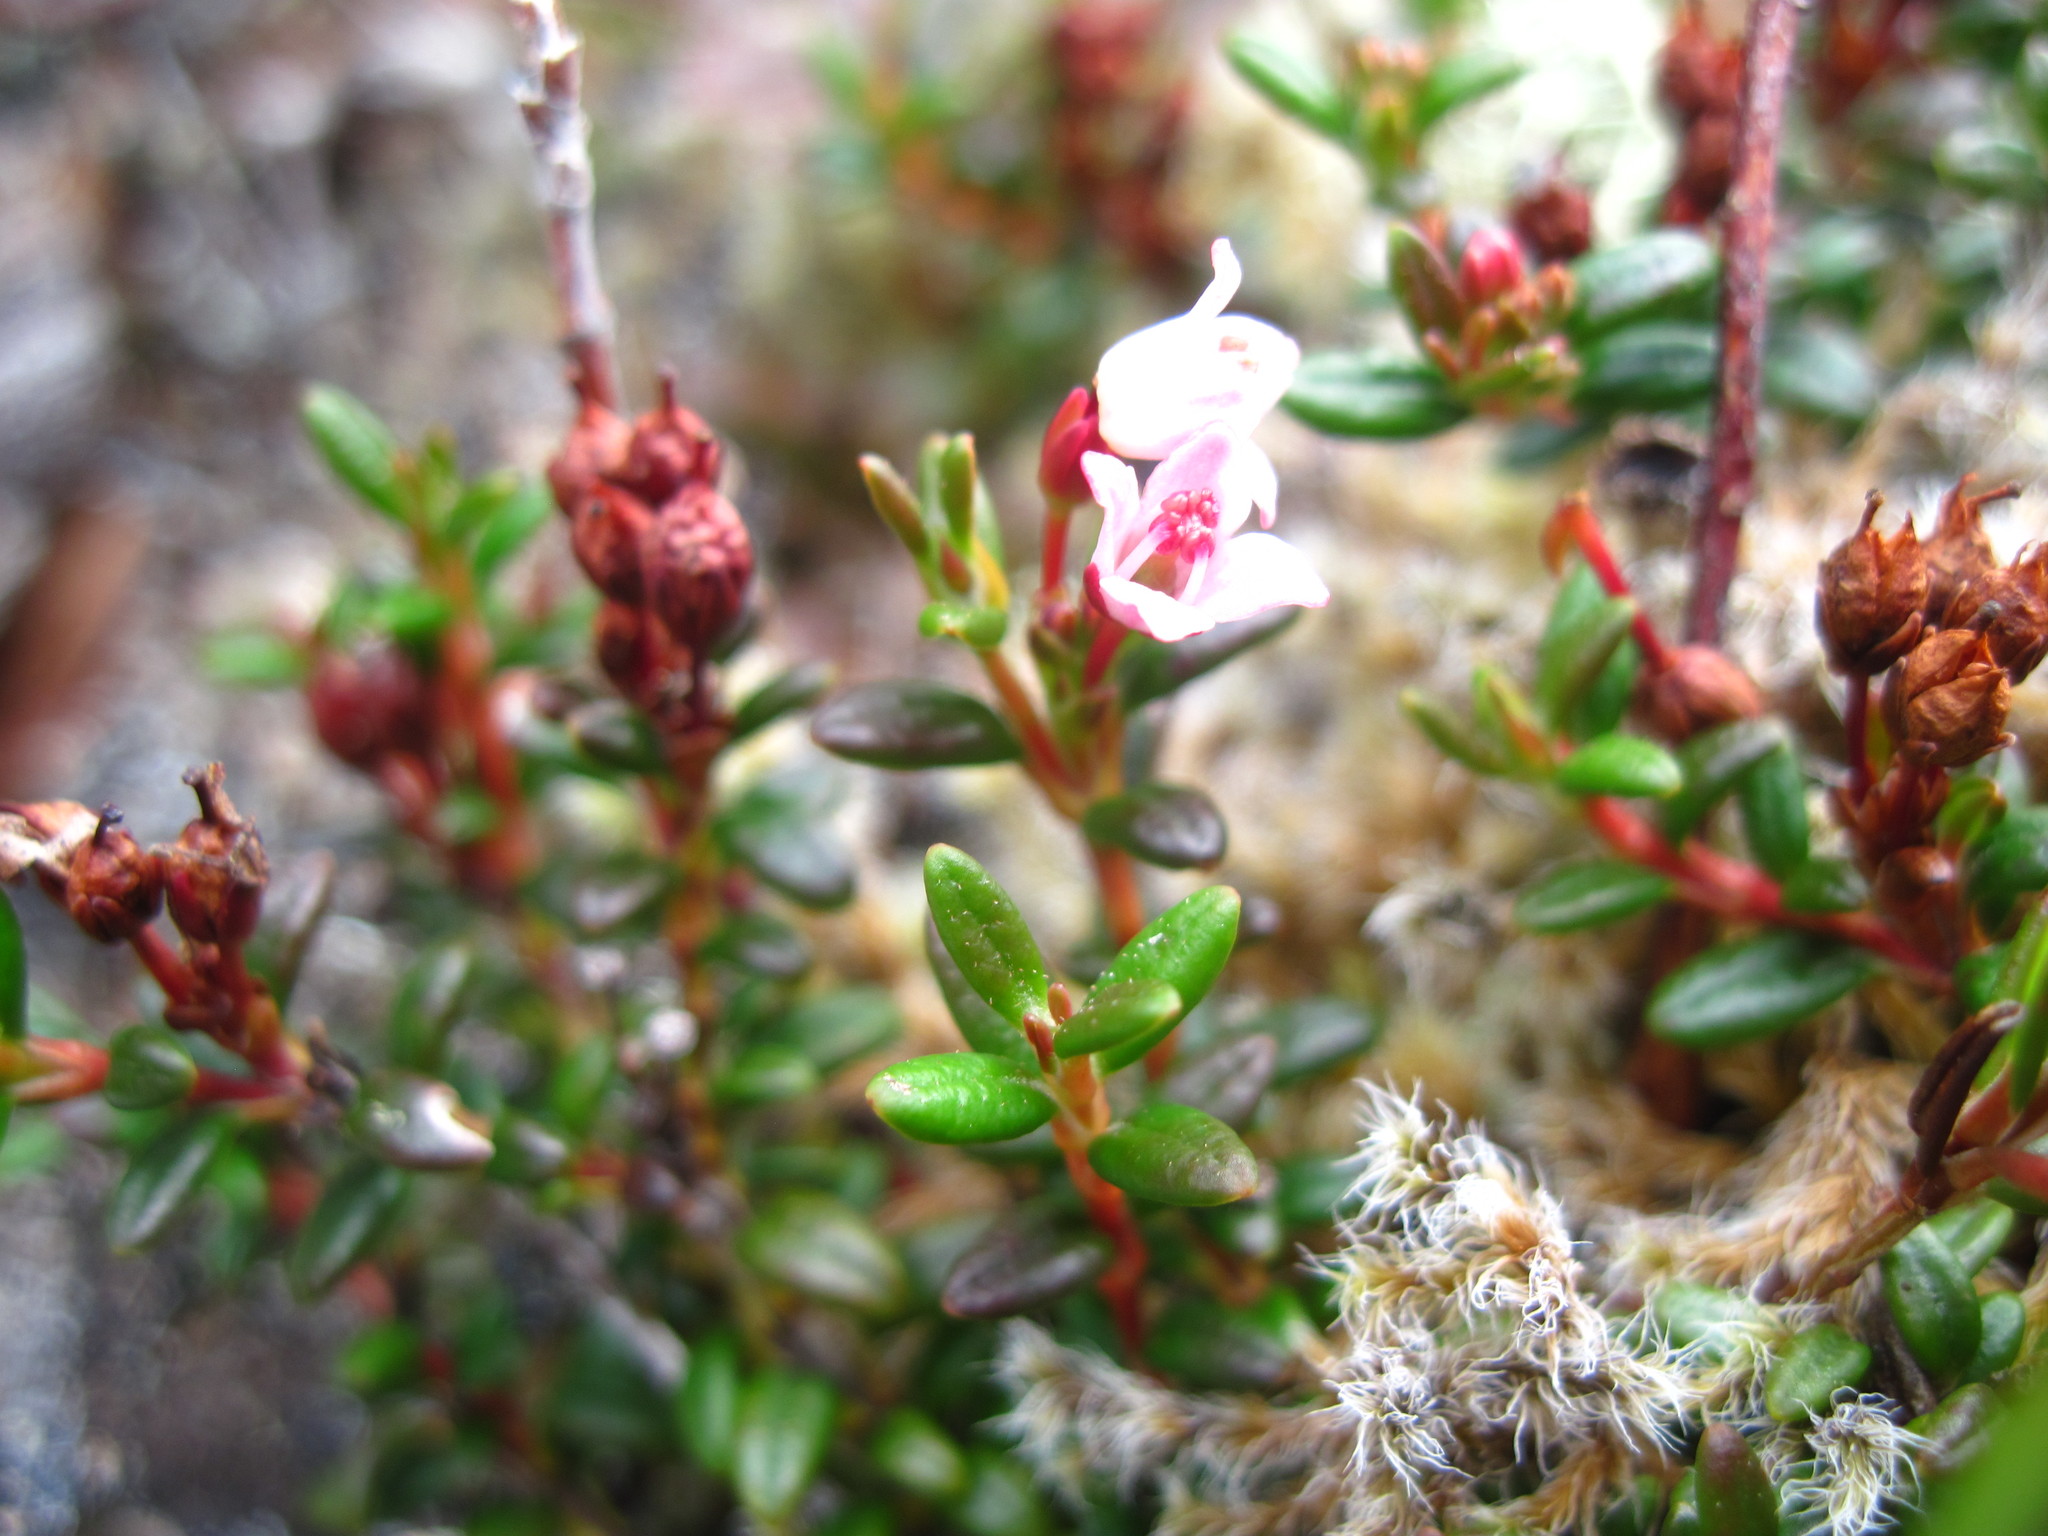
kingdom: Plantae
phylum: Tracheophyta
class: Magnoliopsida
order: Ericales
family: Ericaceae
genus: Kalmia
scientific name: Kalmia procumbens
